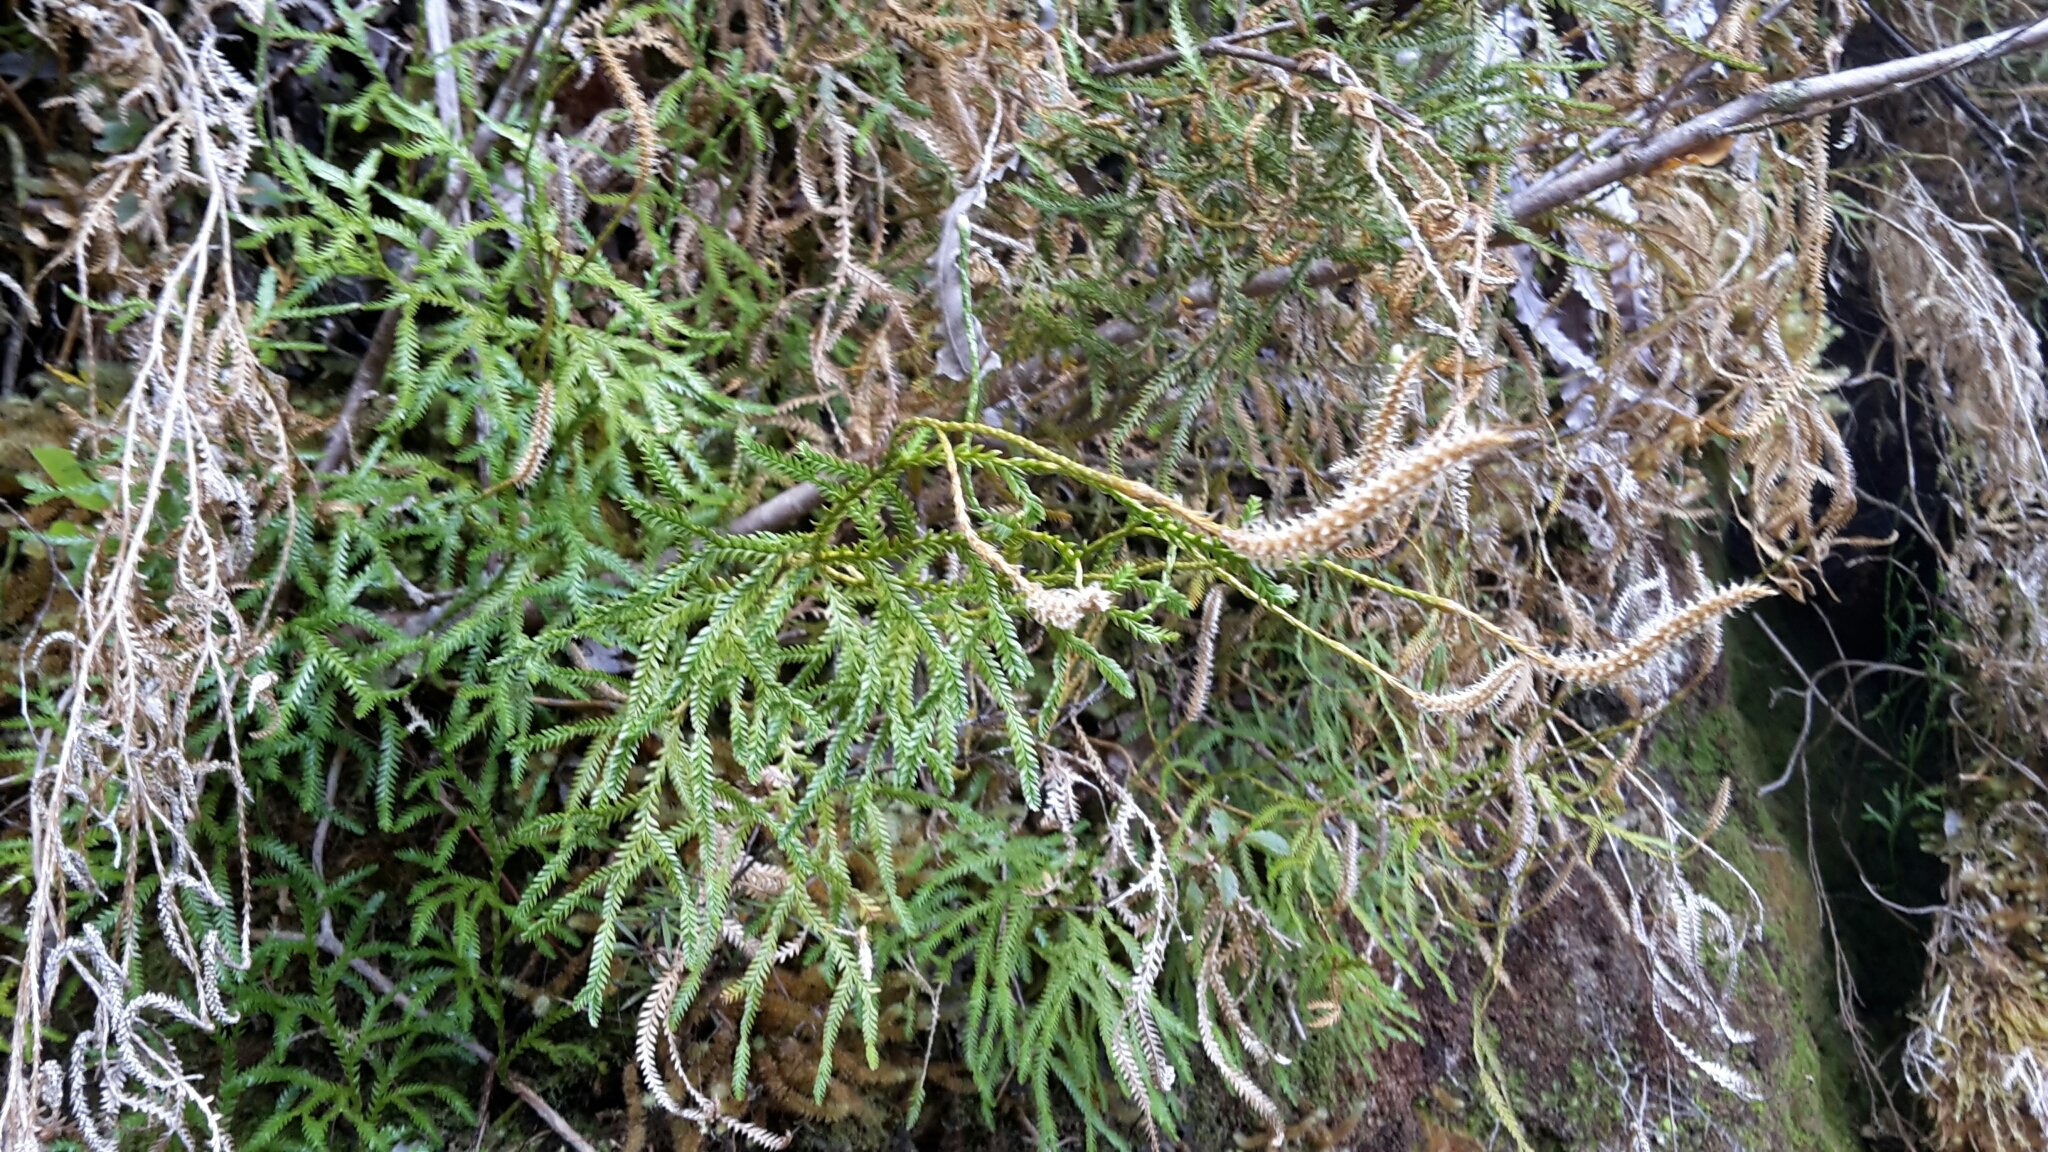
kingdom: Plantae
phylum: Tracheophyta
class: Lycopodiopsida
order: Lycopodiales
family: Lycopodiaceae
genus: Diphasium
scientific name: Diphasium scariosum
